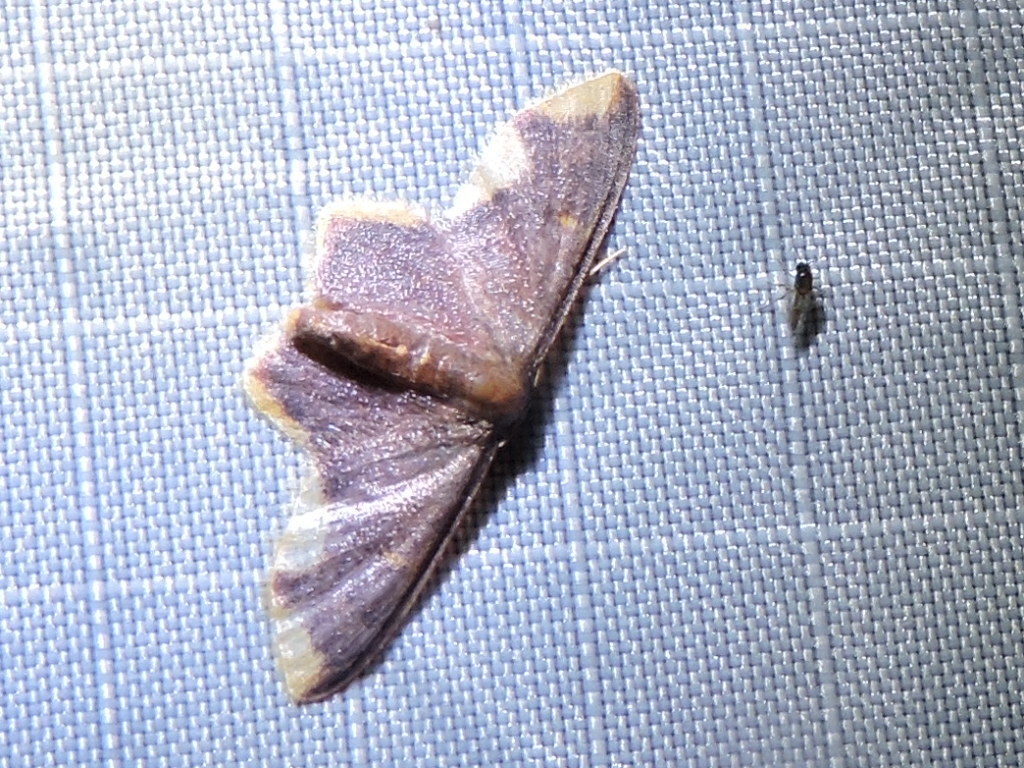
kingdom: Animalia
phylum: Arthropoda
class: Insecta
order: Lepidoptera
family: Geometridae
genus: Lophosis
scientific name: Lophosis labeculata
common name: Stained lophosis moth
